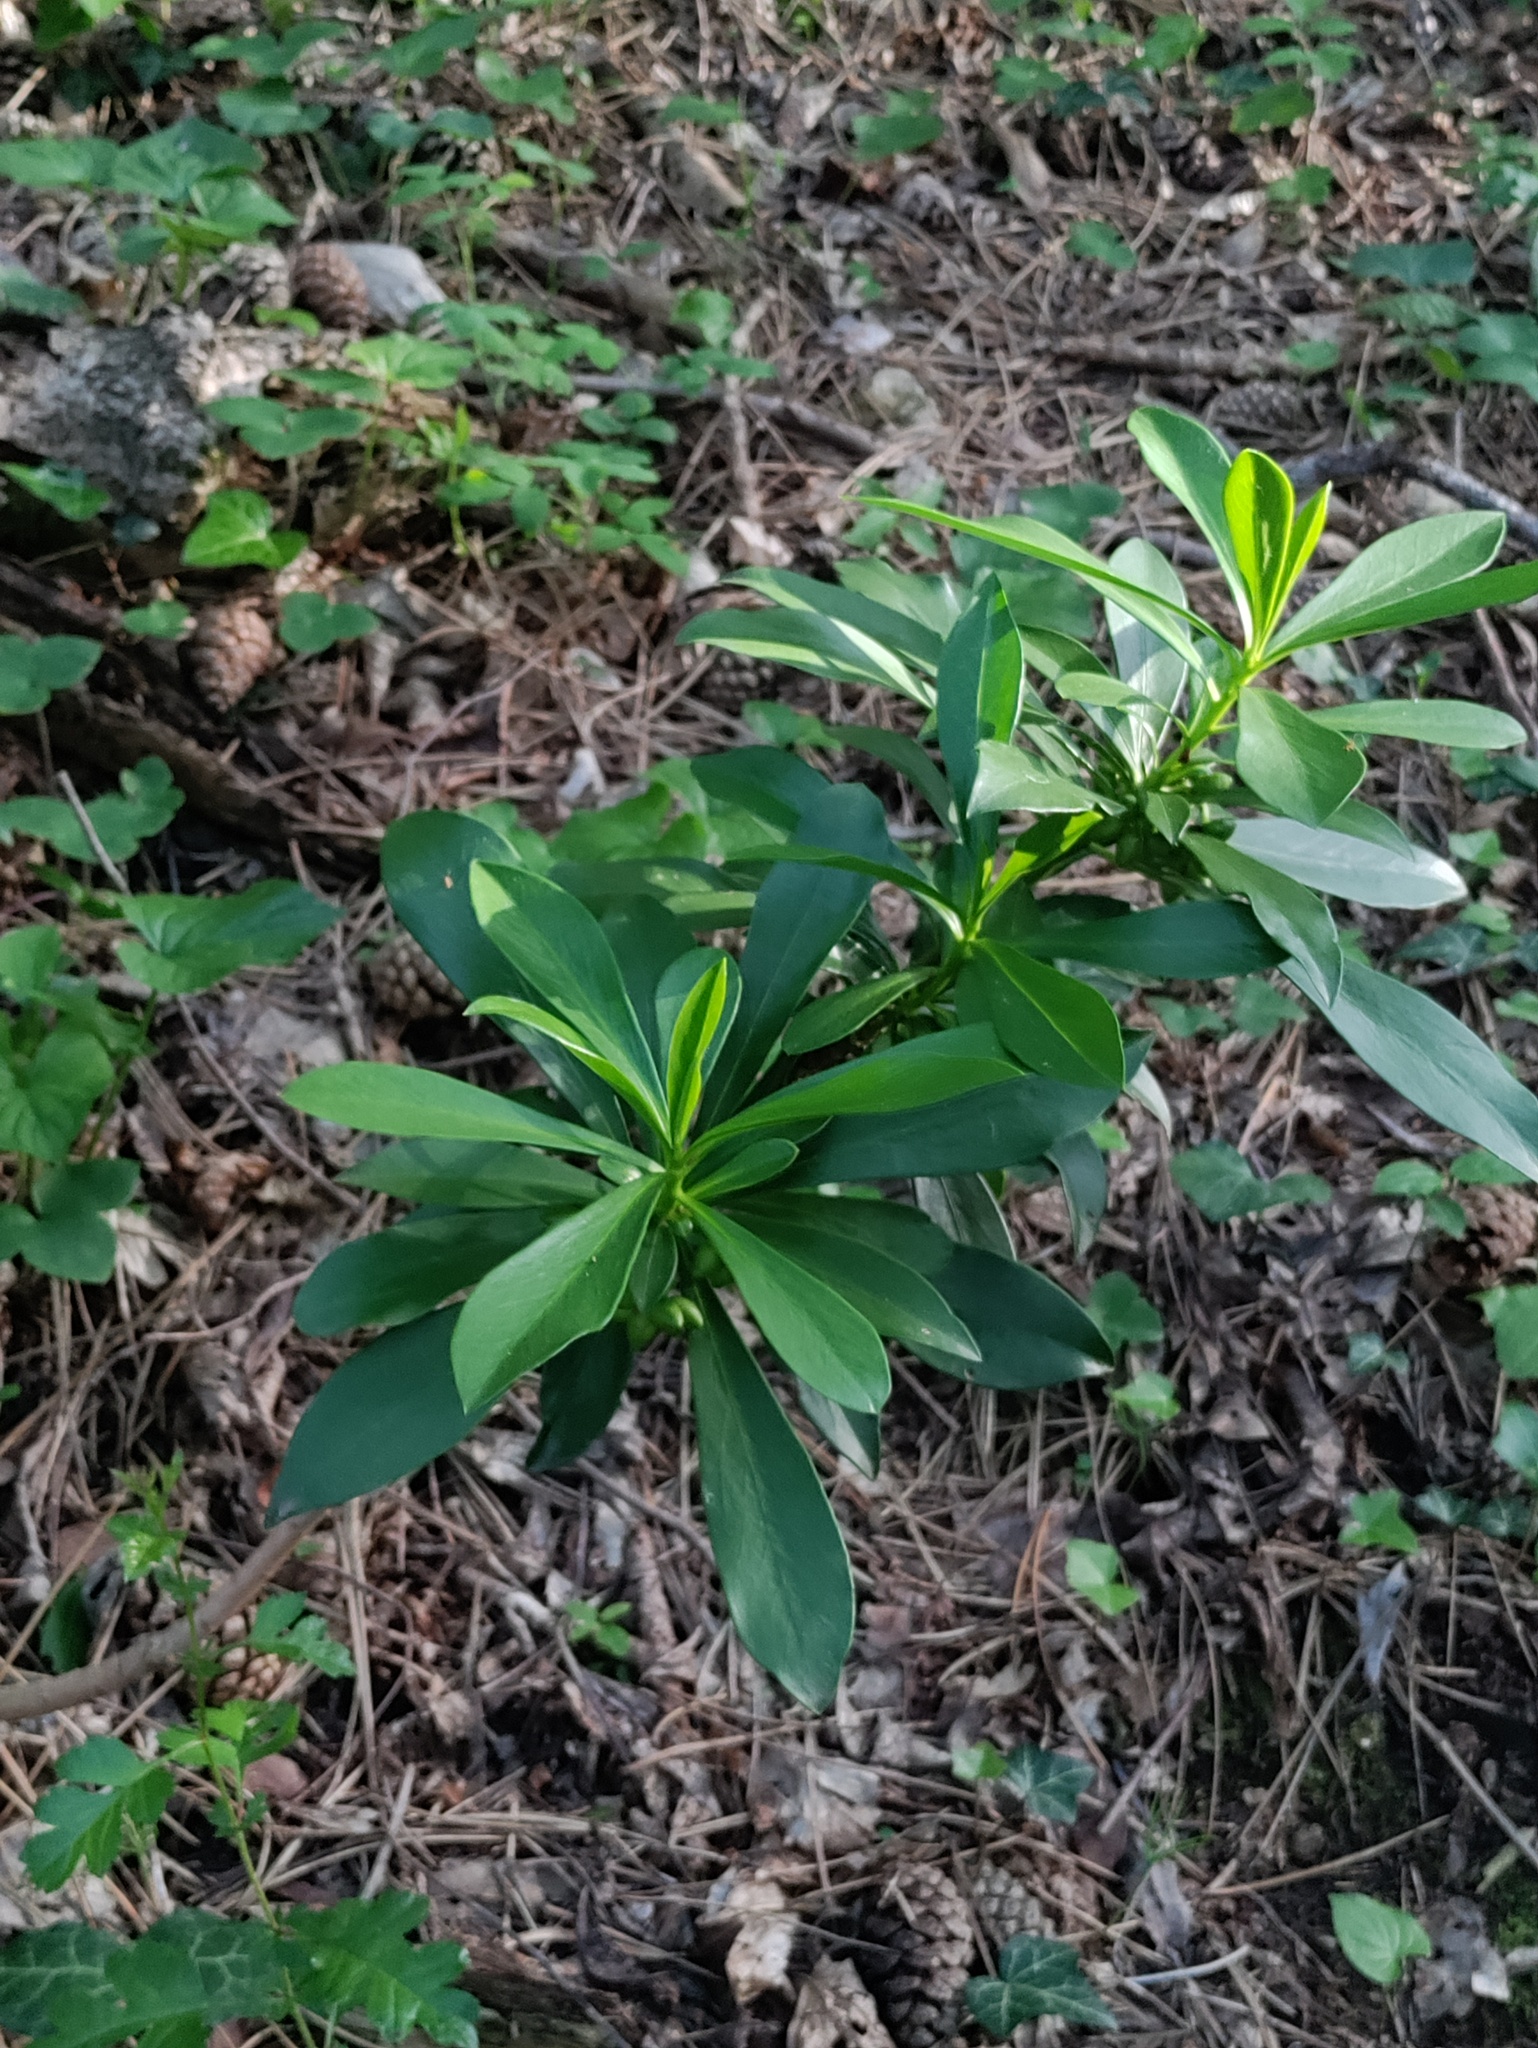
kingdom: Plantae
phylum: Tracheophyta
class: Magnoliopsida
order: Malvales
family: Thymelaeaceae
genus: Daphne
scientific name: Daphne laureola
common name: Spurge-laurel
